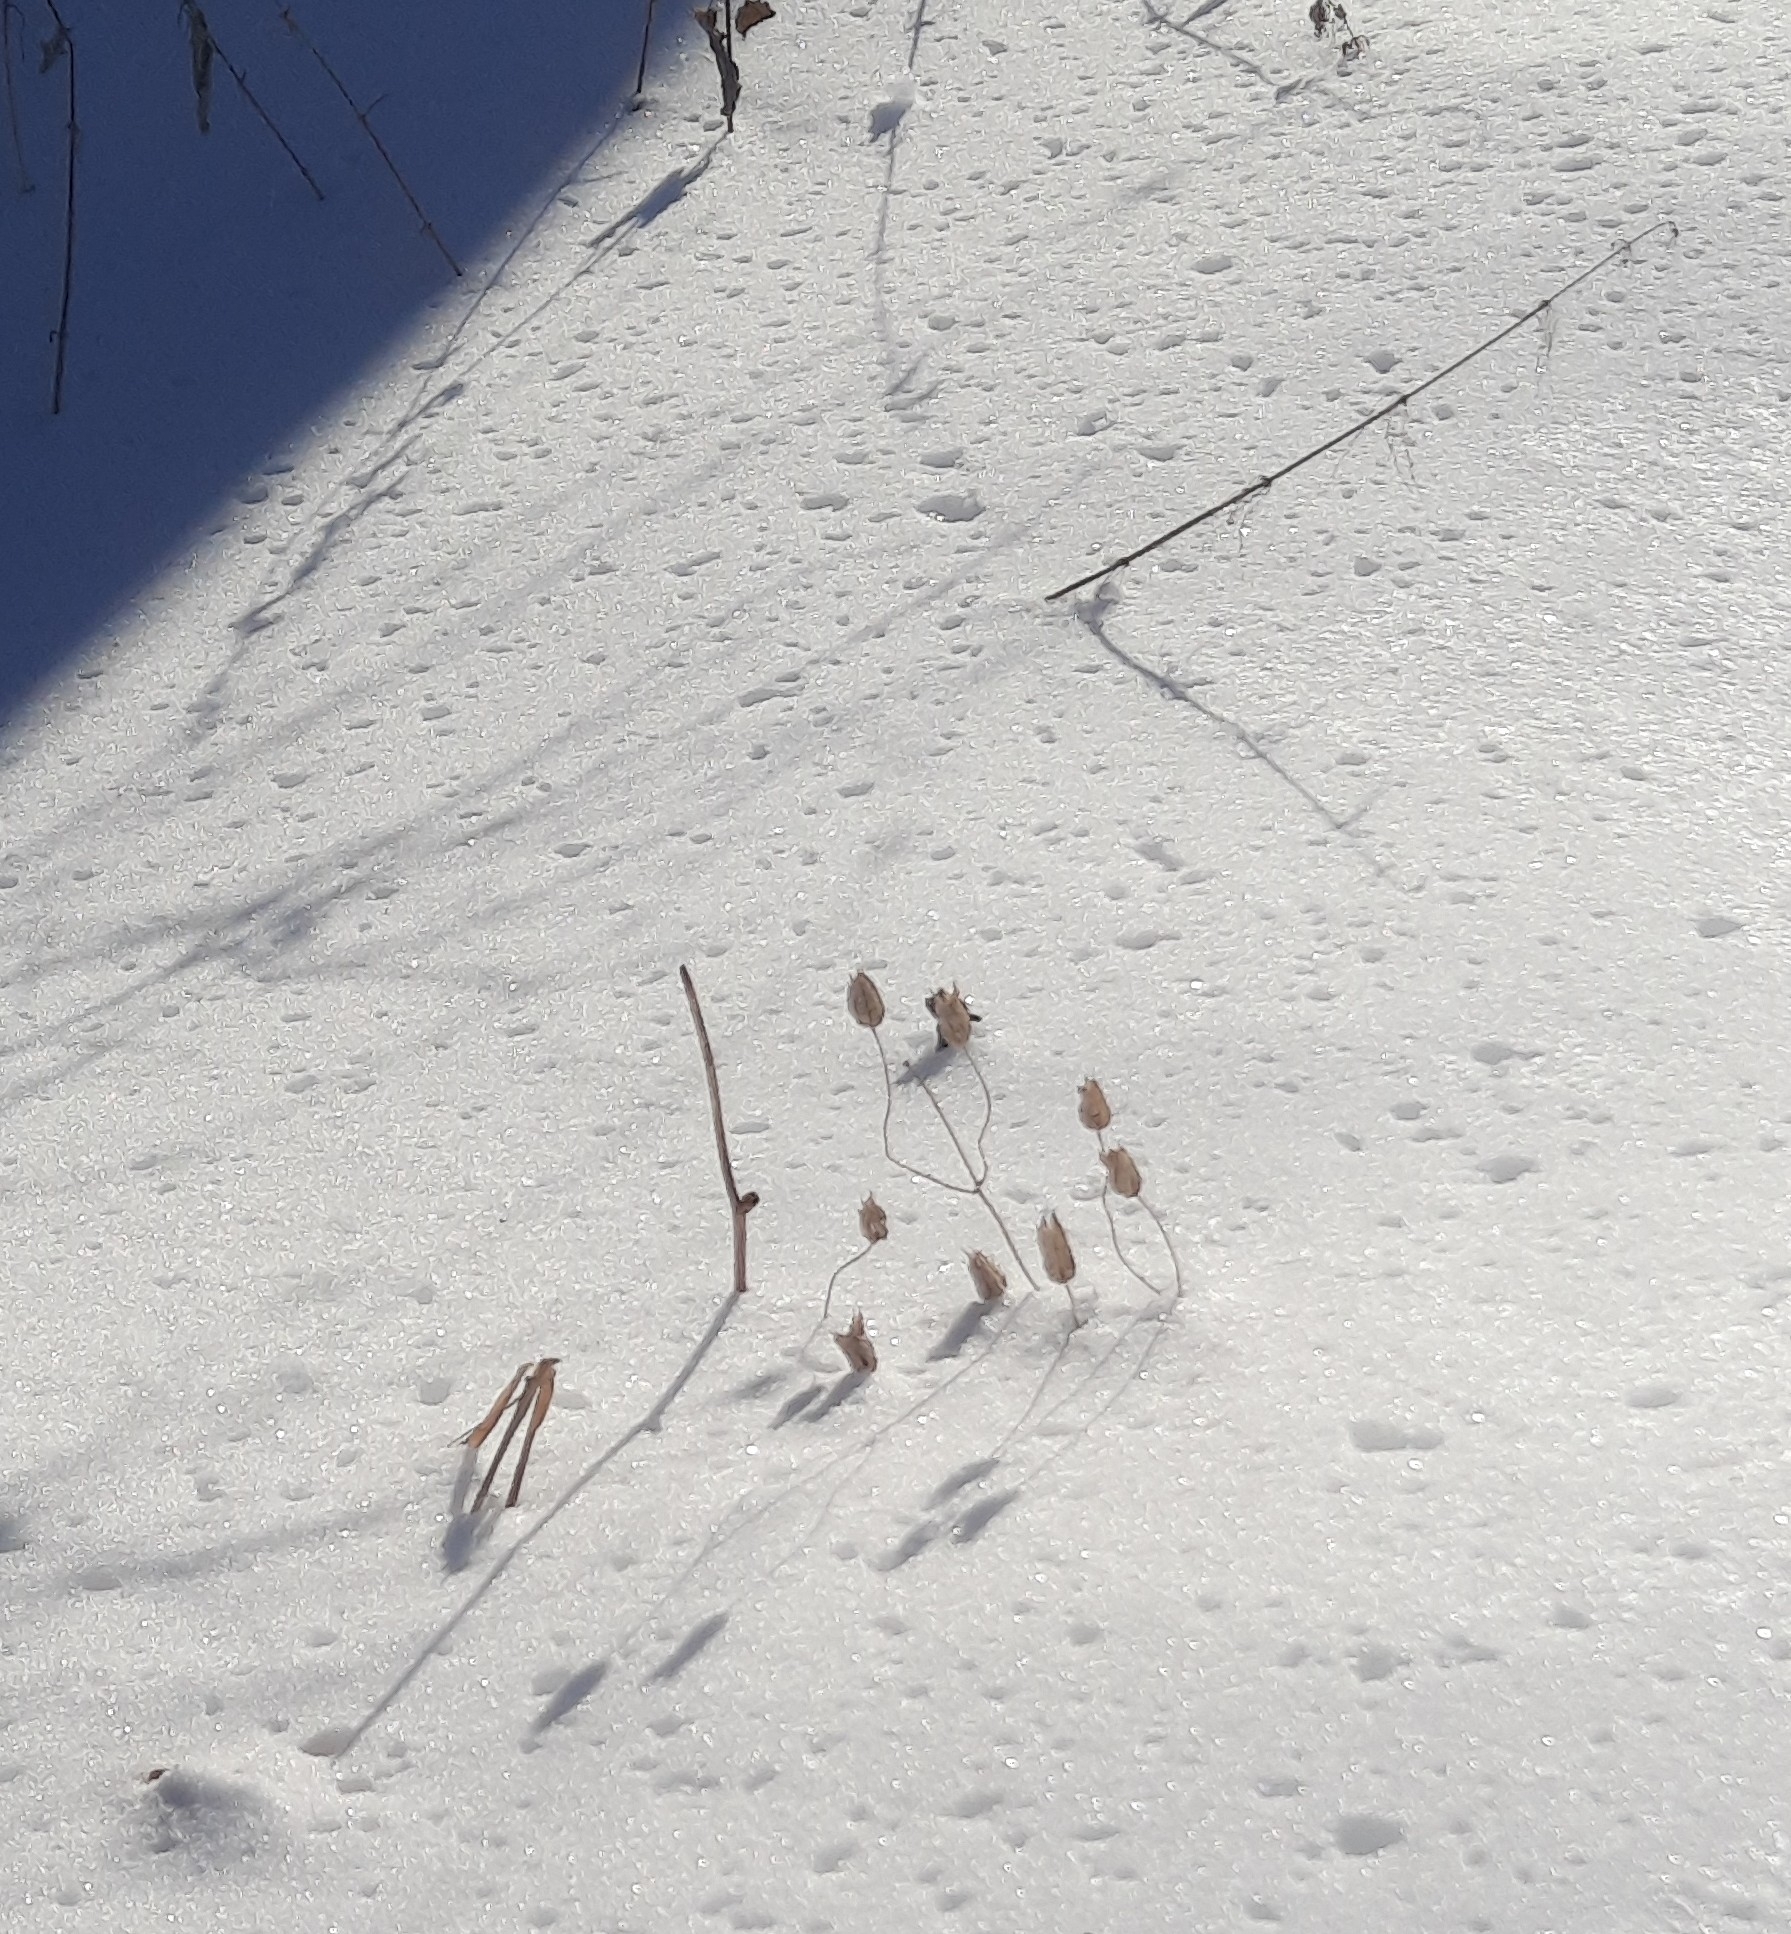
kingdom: Plantae
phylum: Tracheophyta
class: Magnoliopsida
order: Ranunculales
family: Ranunculaceae
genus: Aquilegia
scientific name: Aquilegia vulgaris
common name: Columbine
